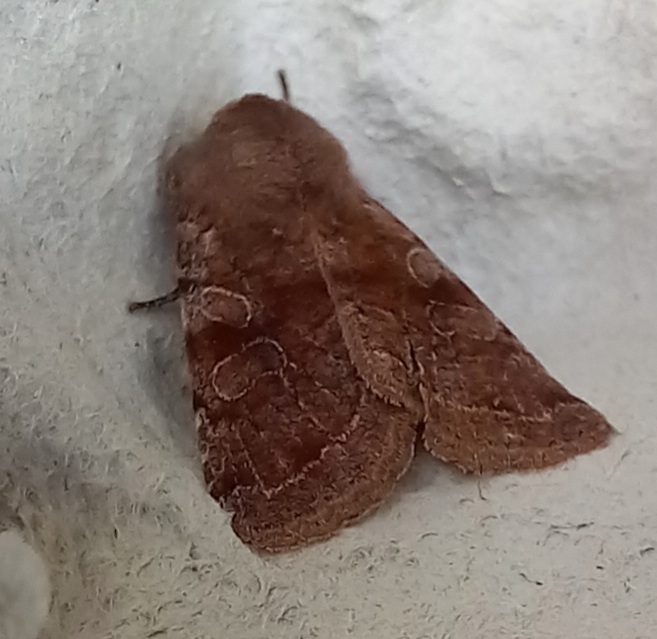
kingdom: Animalia
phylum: Arthropoda
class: Insecta
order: Lepidoptera
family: Noctuidae
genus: Orthosia
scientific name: Orthosia incerta
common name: Clouded drab
